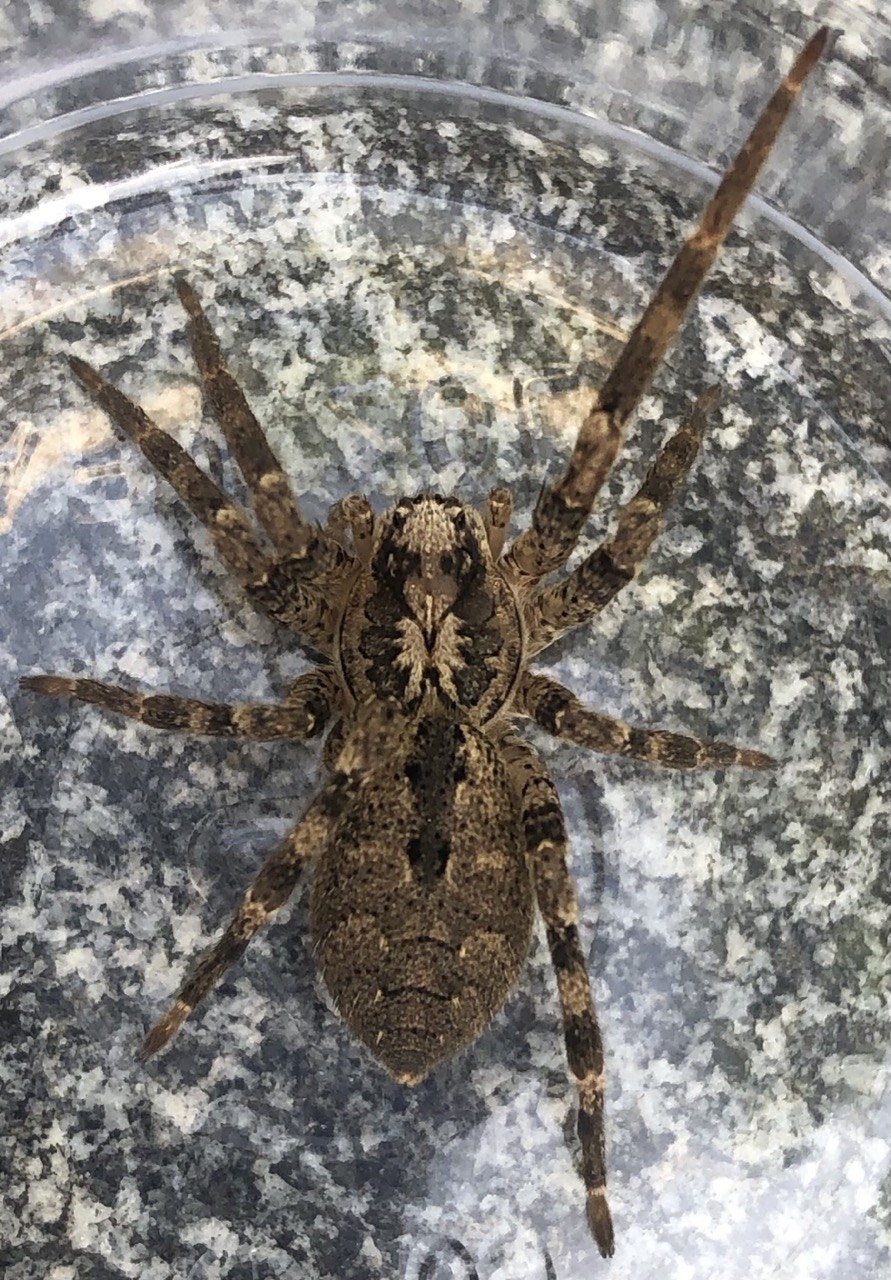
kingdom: Animalia
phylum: Arthropoda
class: Arachnida
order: Araneae
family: Zoropsidae
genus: Zoropsis
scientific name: Zoropsis spinimana
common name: Zoropsid spider
